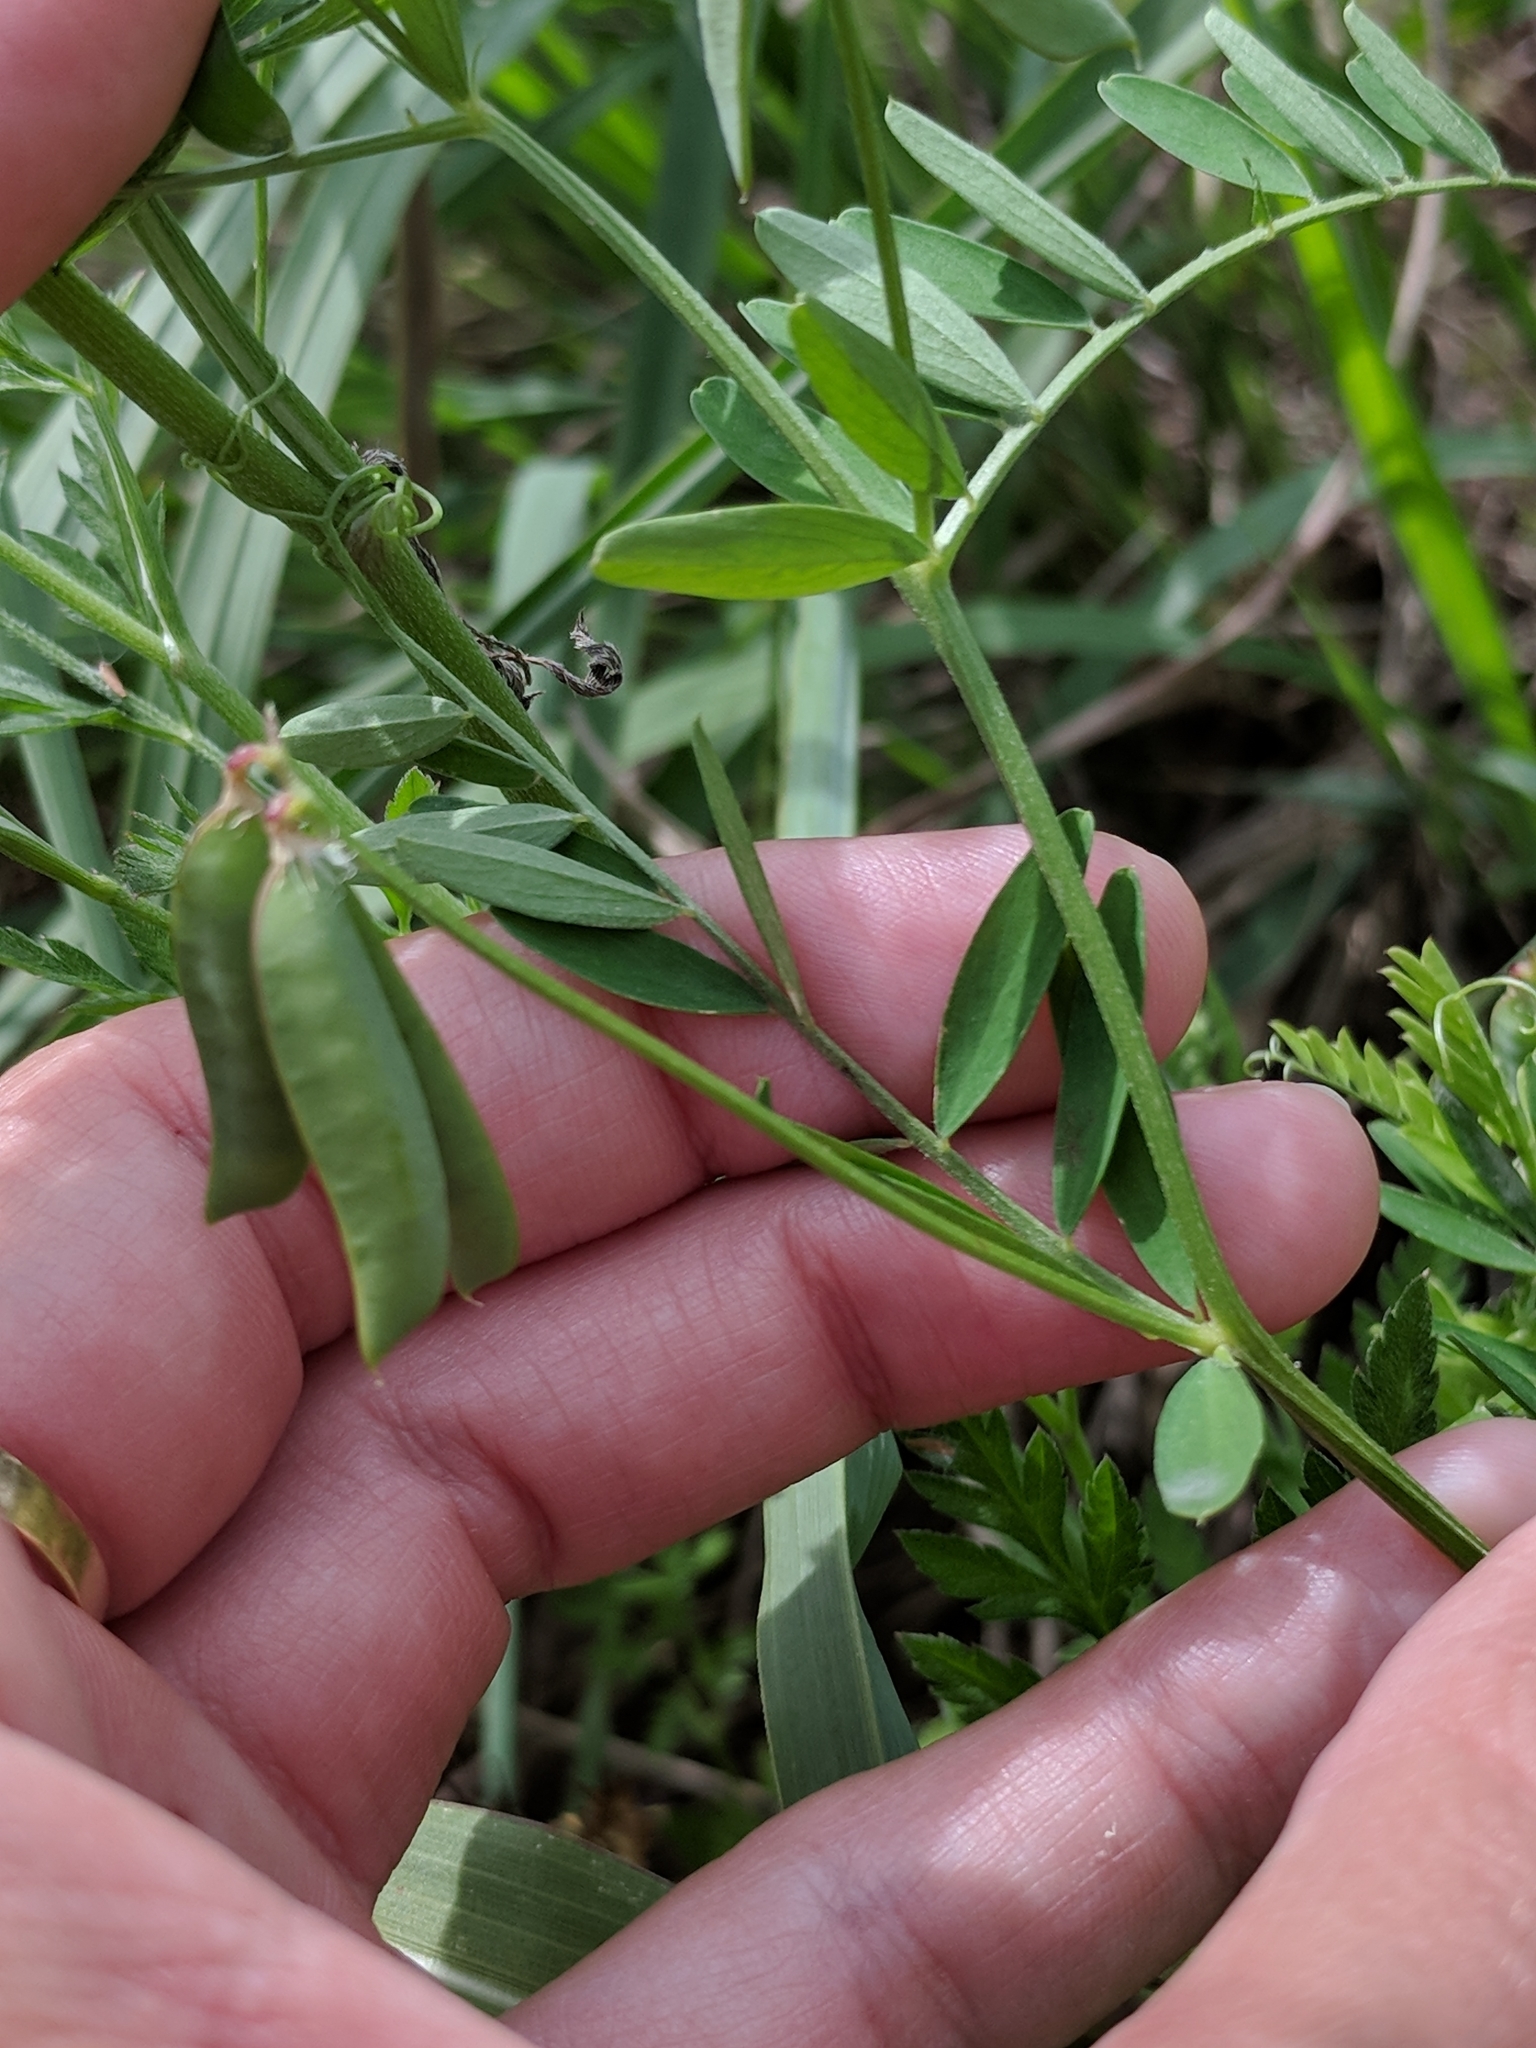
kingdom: Plantae
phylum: Tracheophyta
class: Magnoliopsida
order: Fabales
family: Fabaceae
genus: Vicia
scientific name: Vicia ludoviciana
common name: Louisiana vetch
